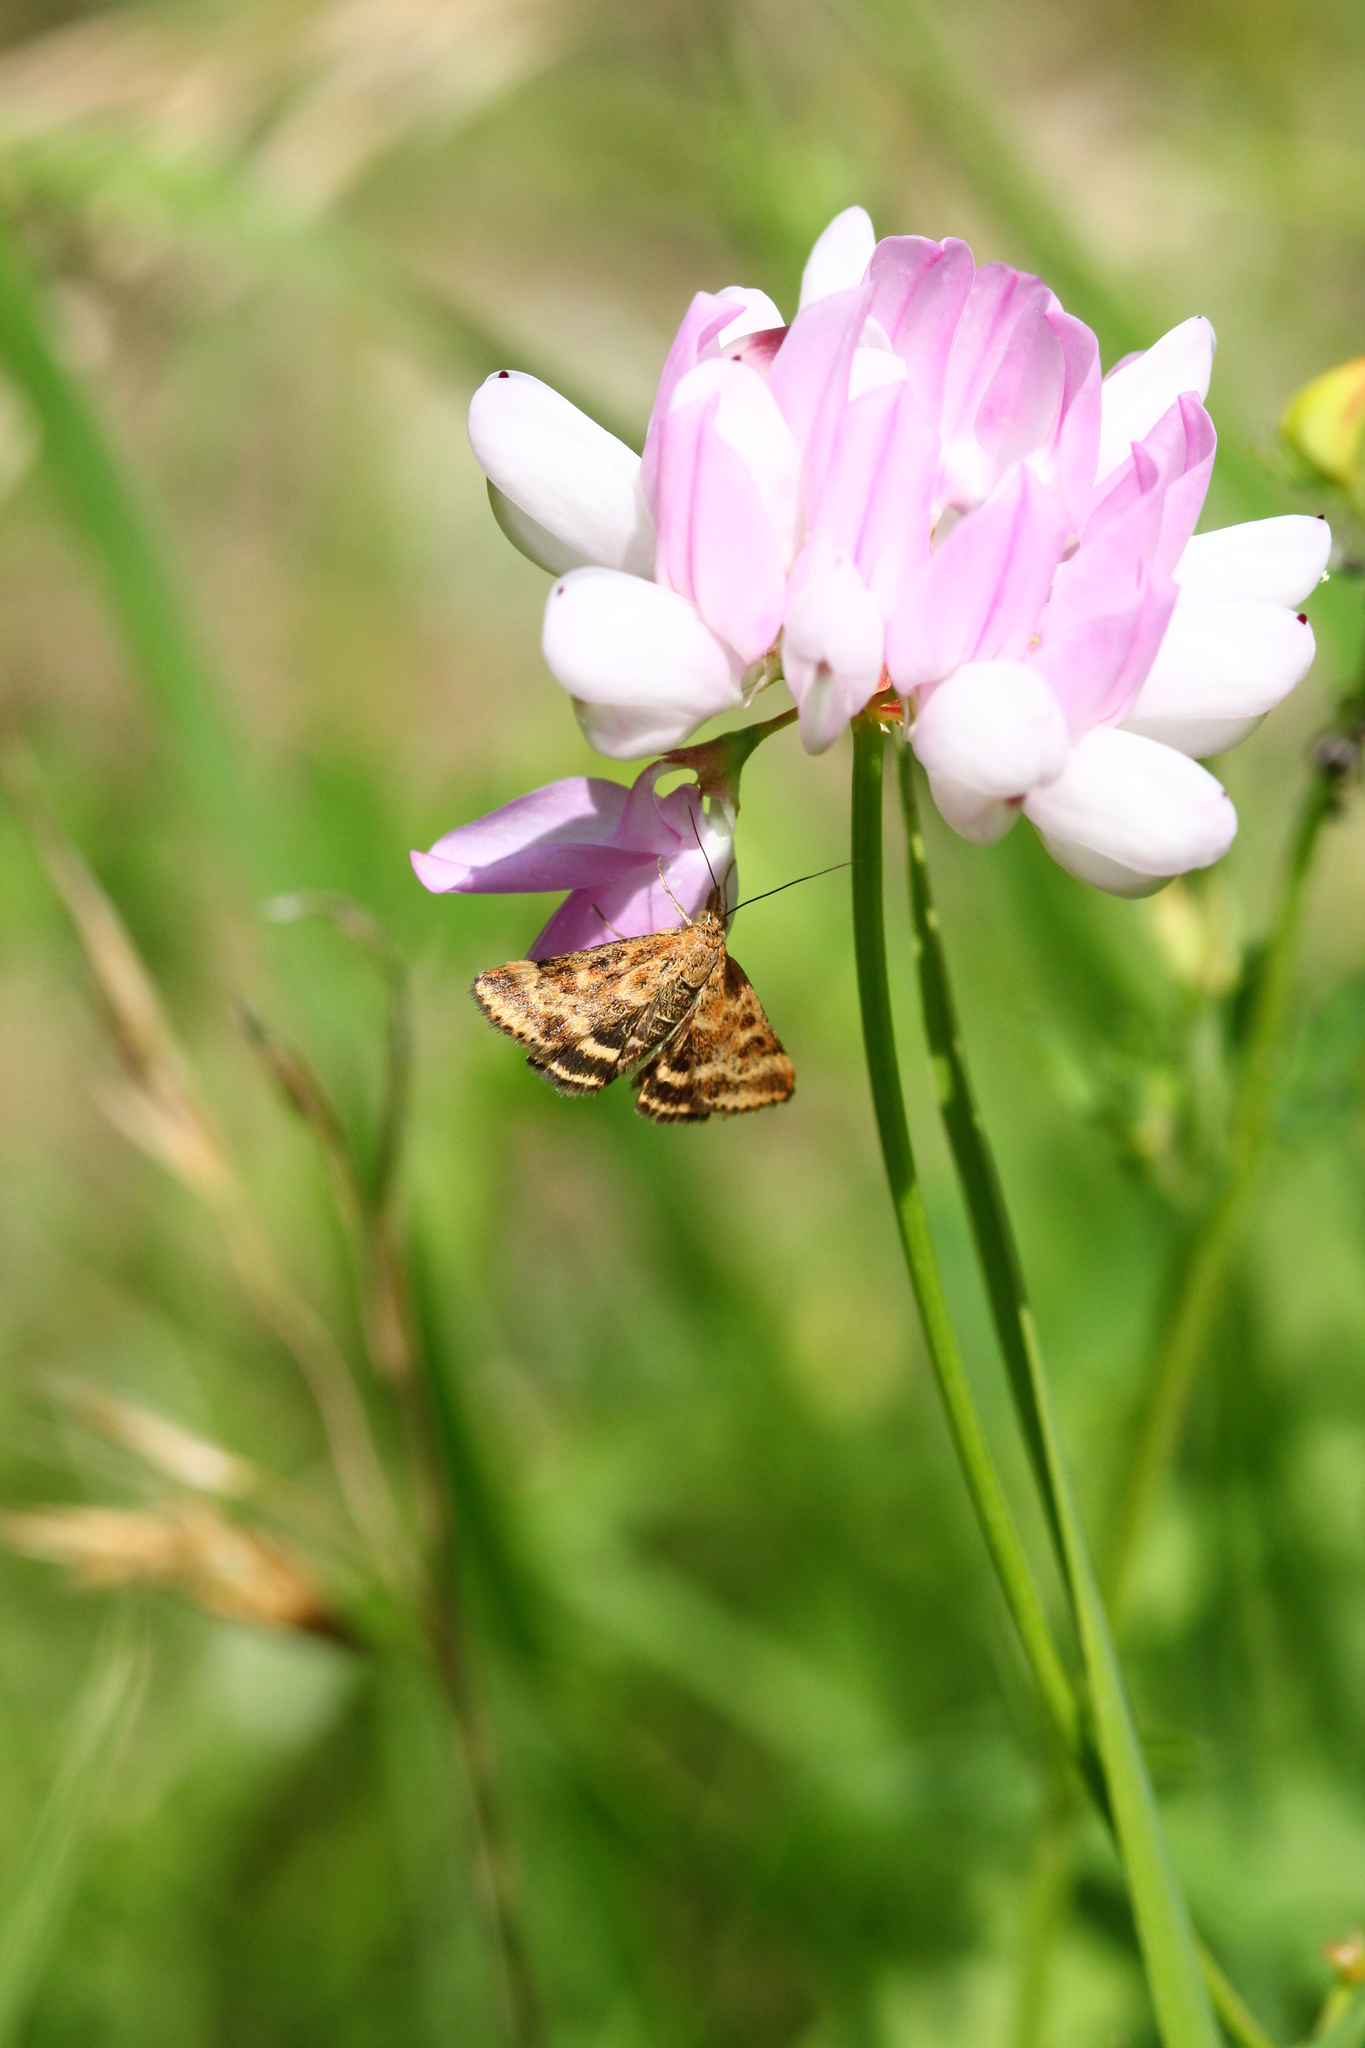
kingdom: Animalia
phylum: Arthropoda
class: Insecta
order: Lepidoptera
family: Crambidae
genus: Pyrausta
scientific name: Pyrausta despicata
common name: Straw-barred pearl
